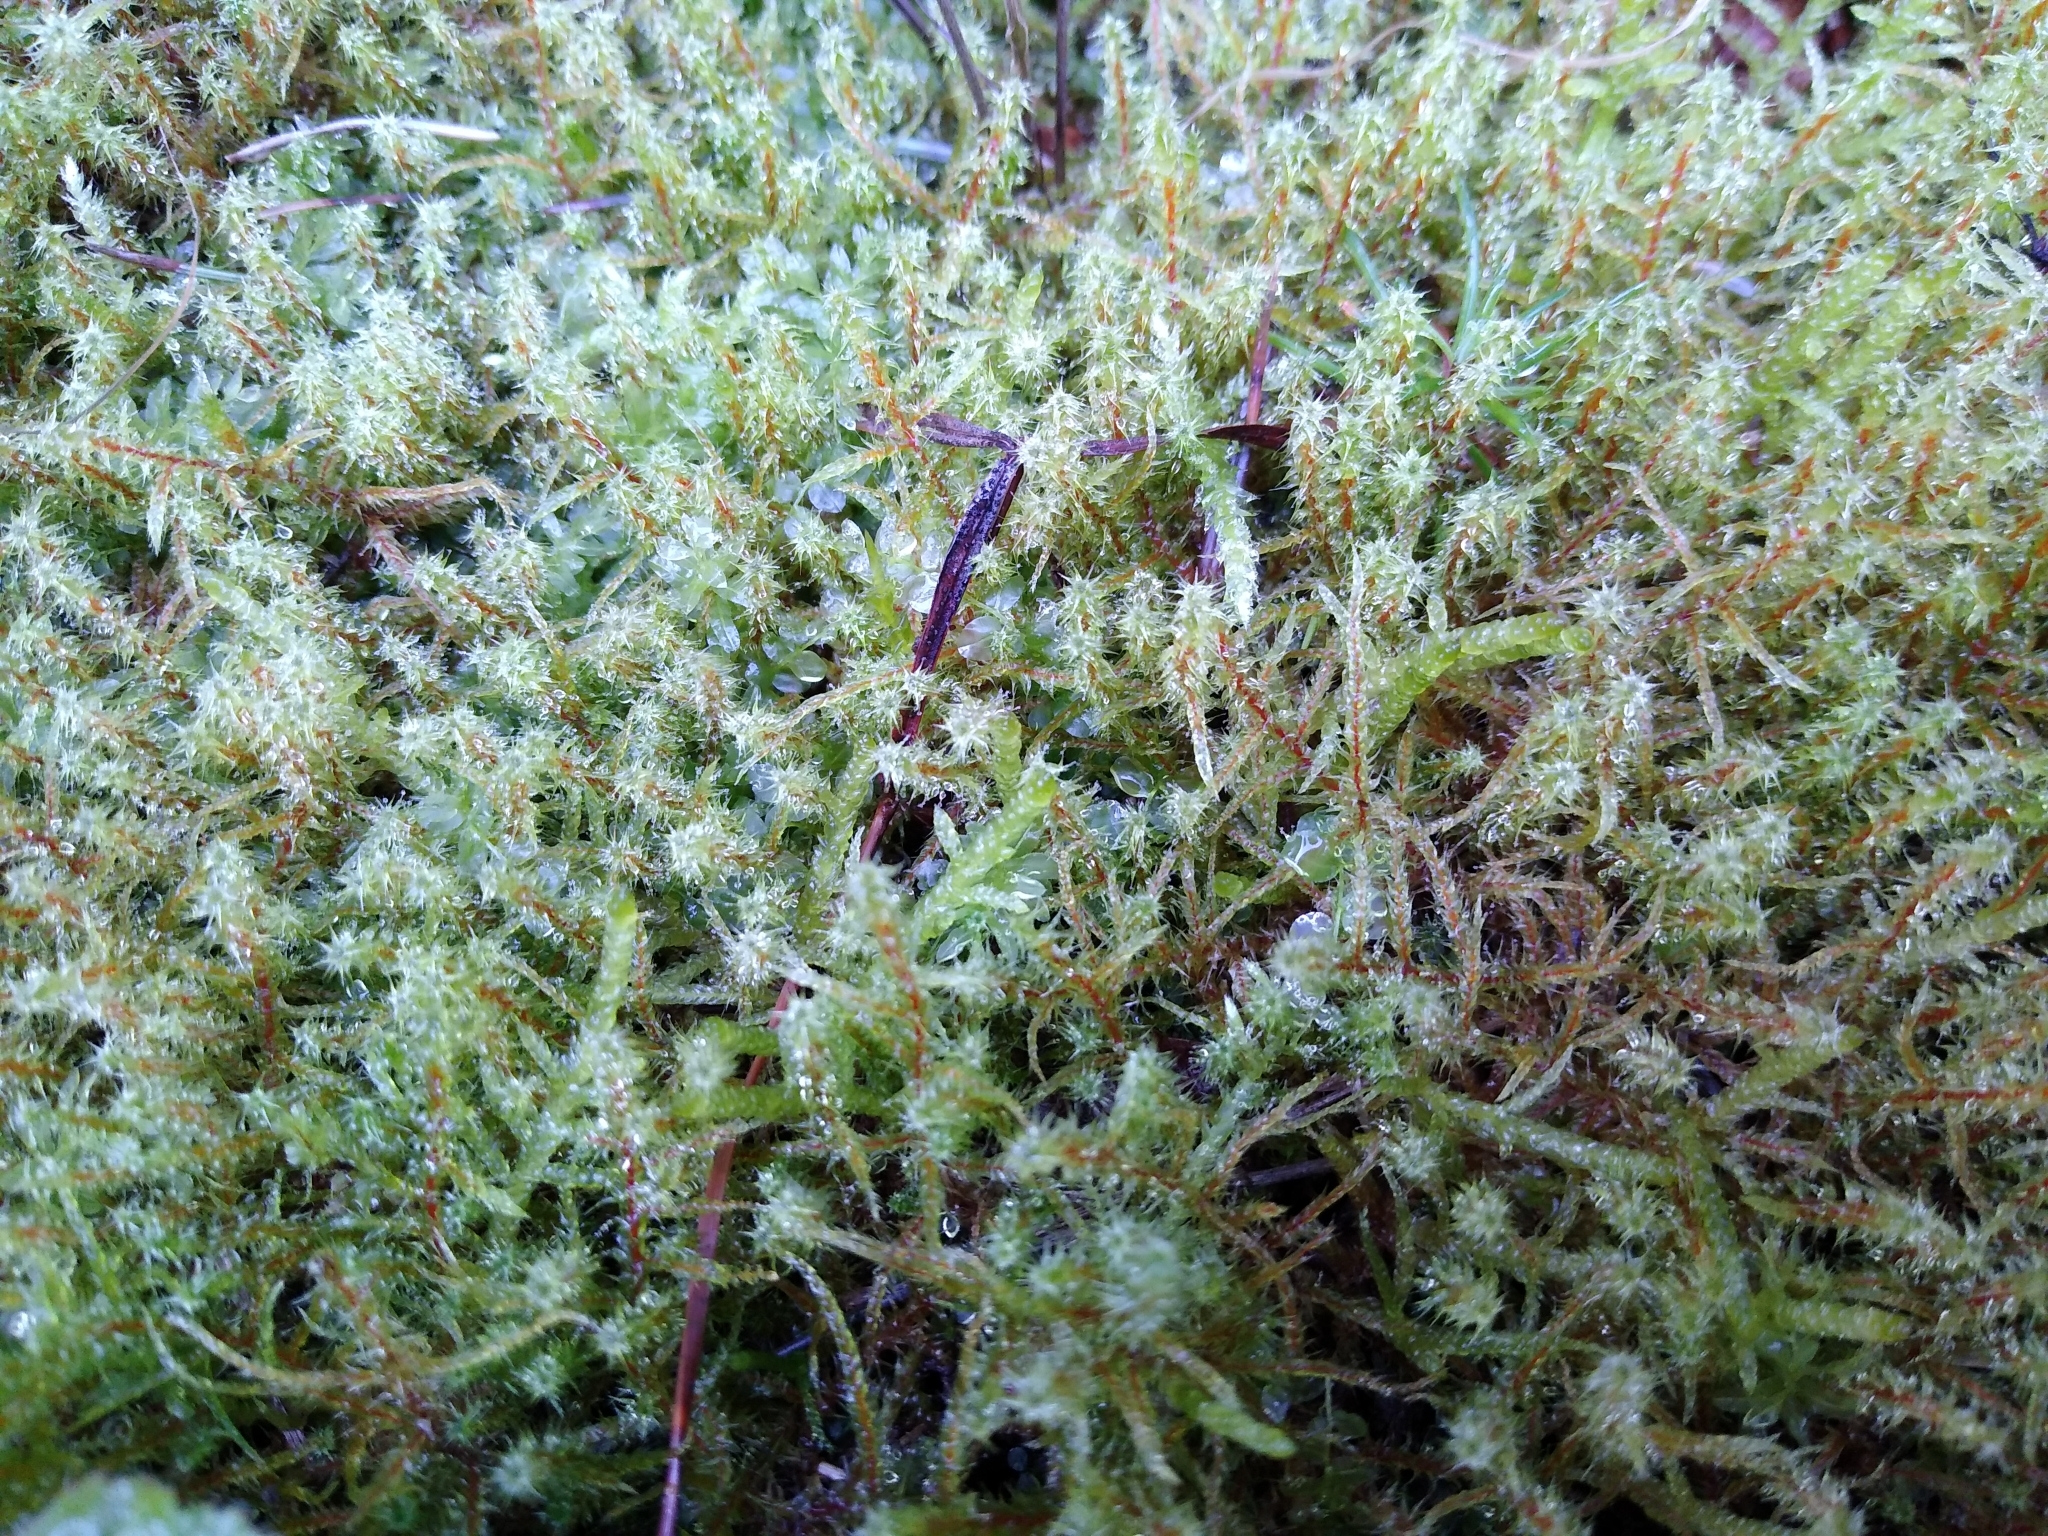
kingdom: Plantae
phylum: Bryophyta
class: Bryopsida
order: Hypnales
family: Hylocomiaceae
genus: Rhytidiadelphus
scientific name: Rhytidiadelphus squarrosus
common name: Springy turf-moss
